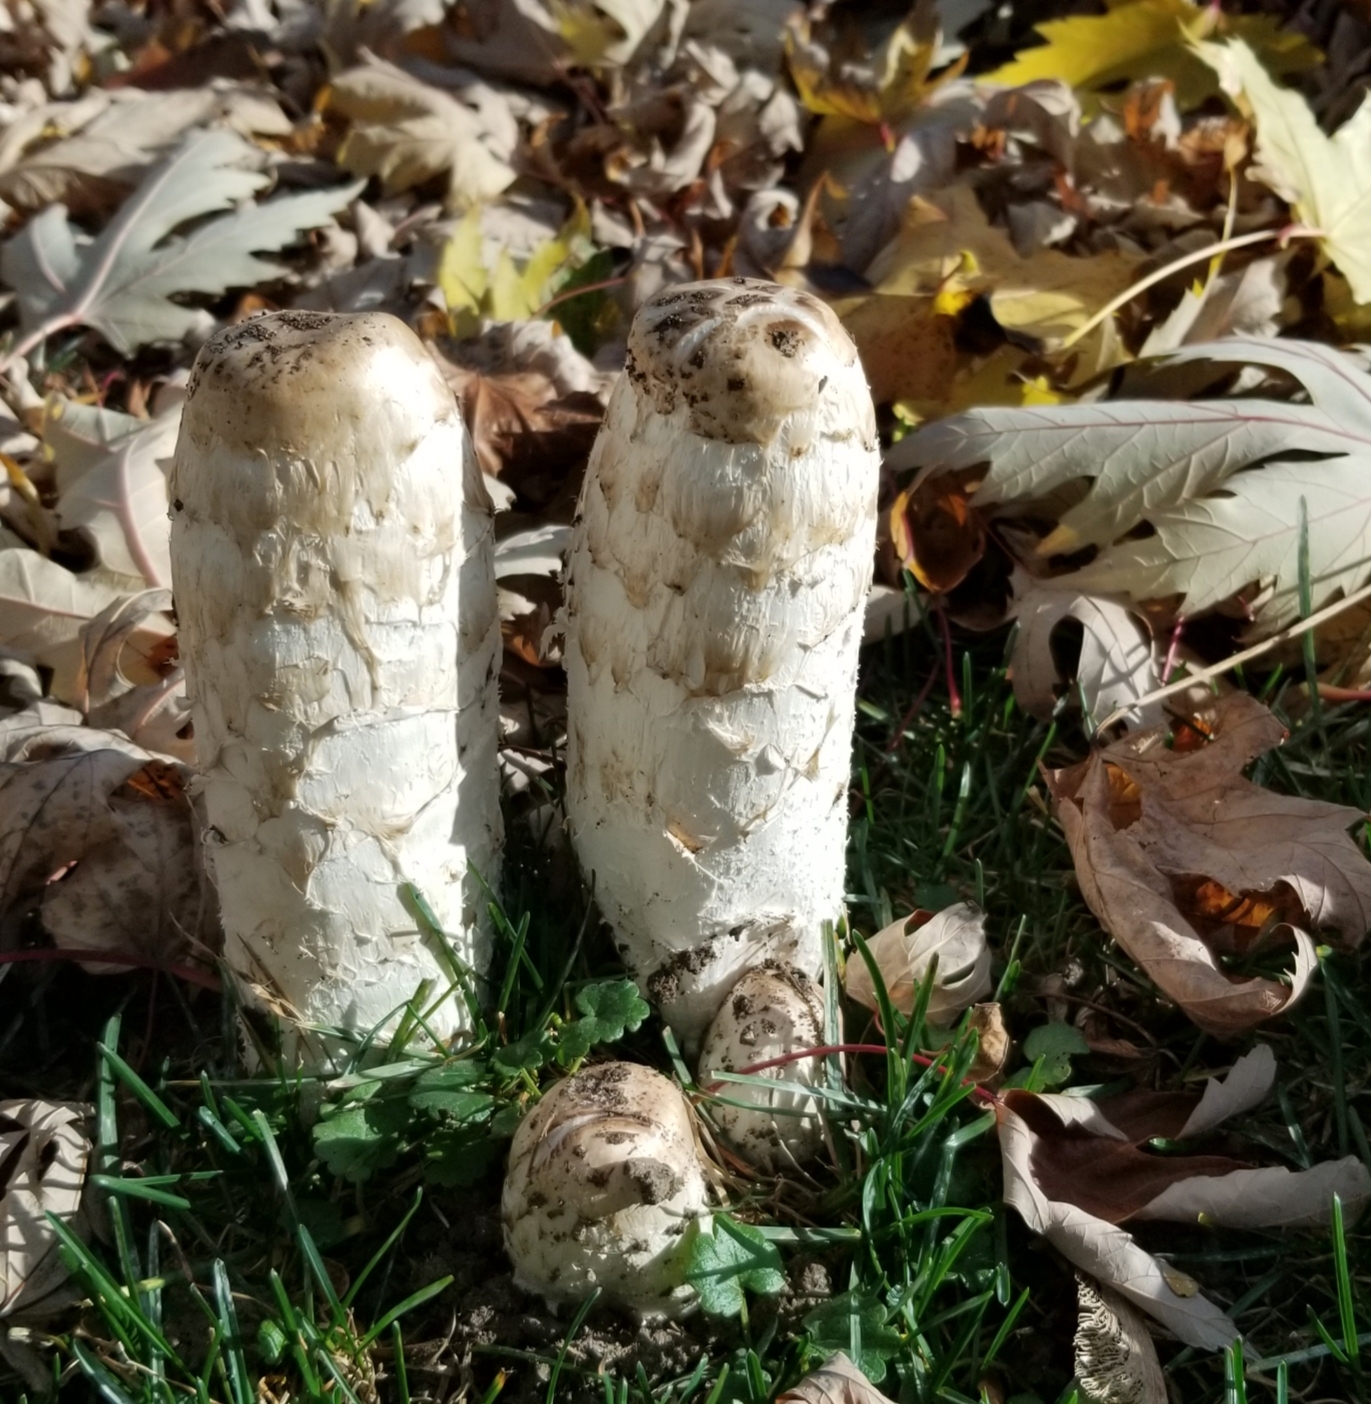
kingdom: Fungi
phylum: Basidiomycota
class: Agaricomycetes
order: Agaricales
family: Agaricaceae
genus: Coprinus
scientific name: Coprinus comatus
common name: Lawyer's wig
